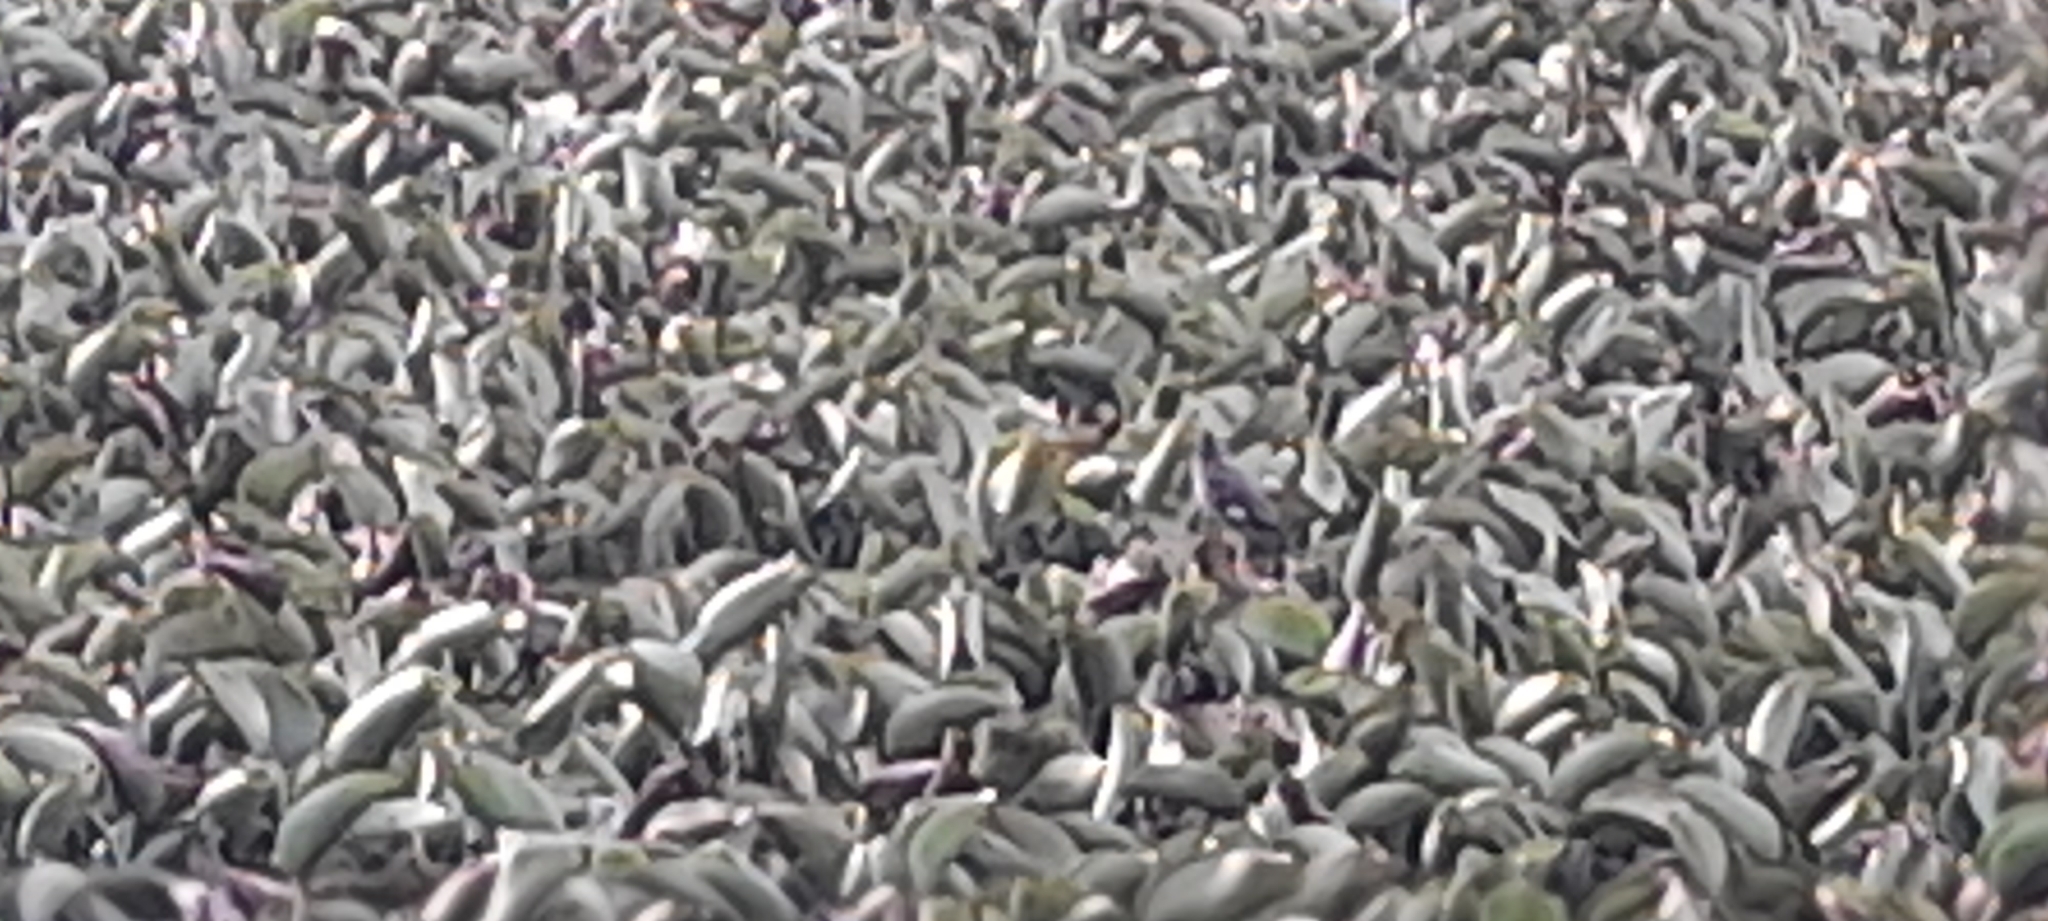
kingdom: Plantae
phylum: Tracheophyta
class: Liliopsida
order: Commelinales
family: Pontederiaceae
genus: Pontederia
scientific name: Pontederia crassipes
